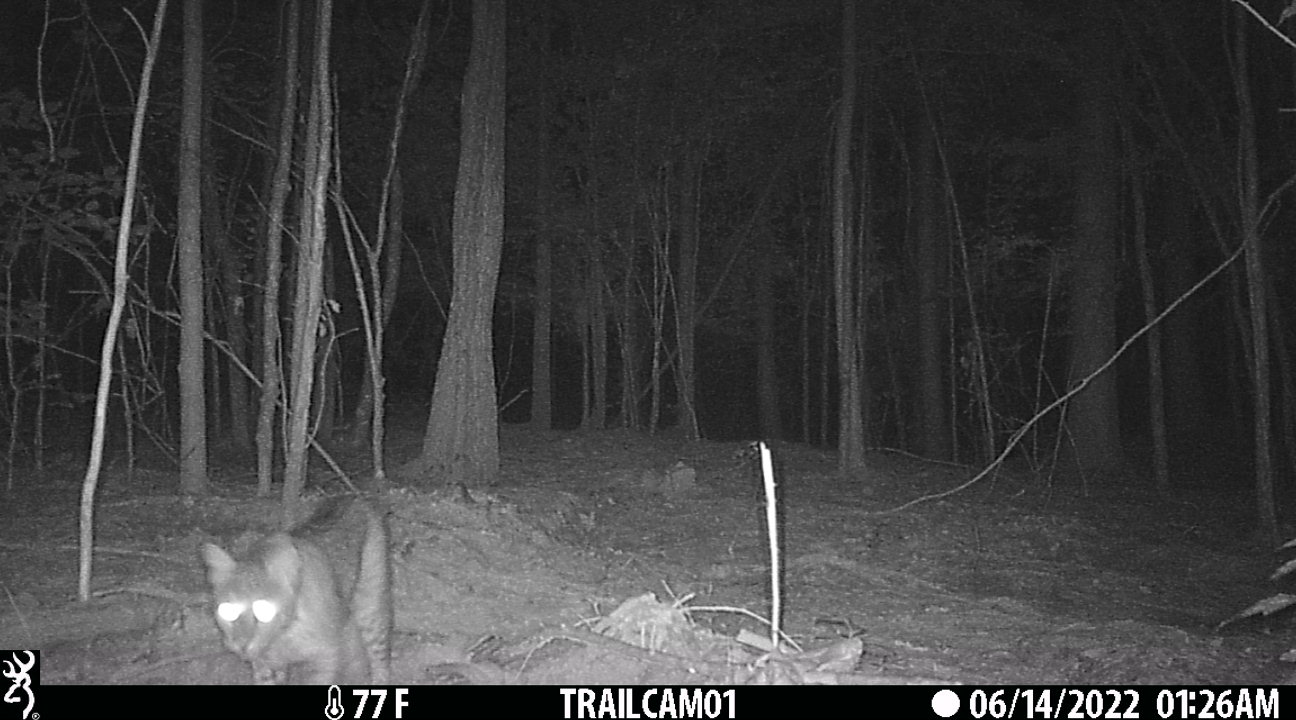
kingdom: Animalia
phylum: Chordata
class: Mammalia
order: Carnivora
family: Felidae
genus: Lynx
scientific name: Lynx rufus
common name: Bobcat
